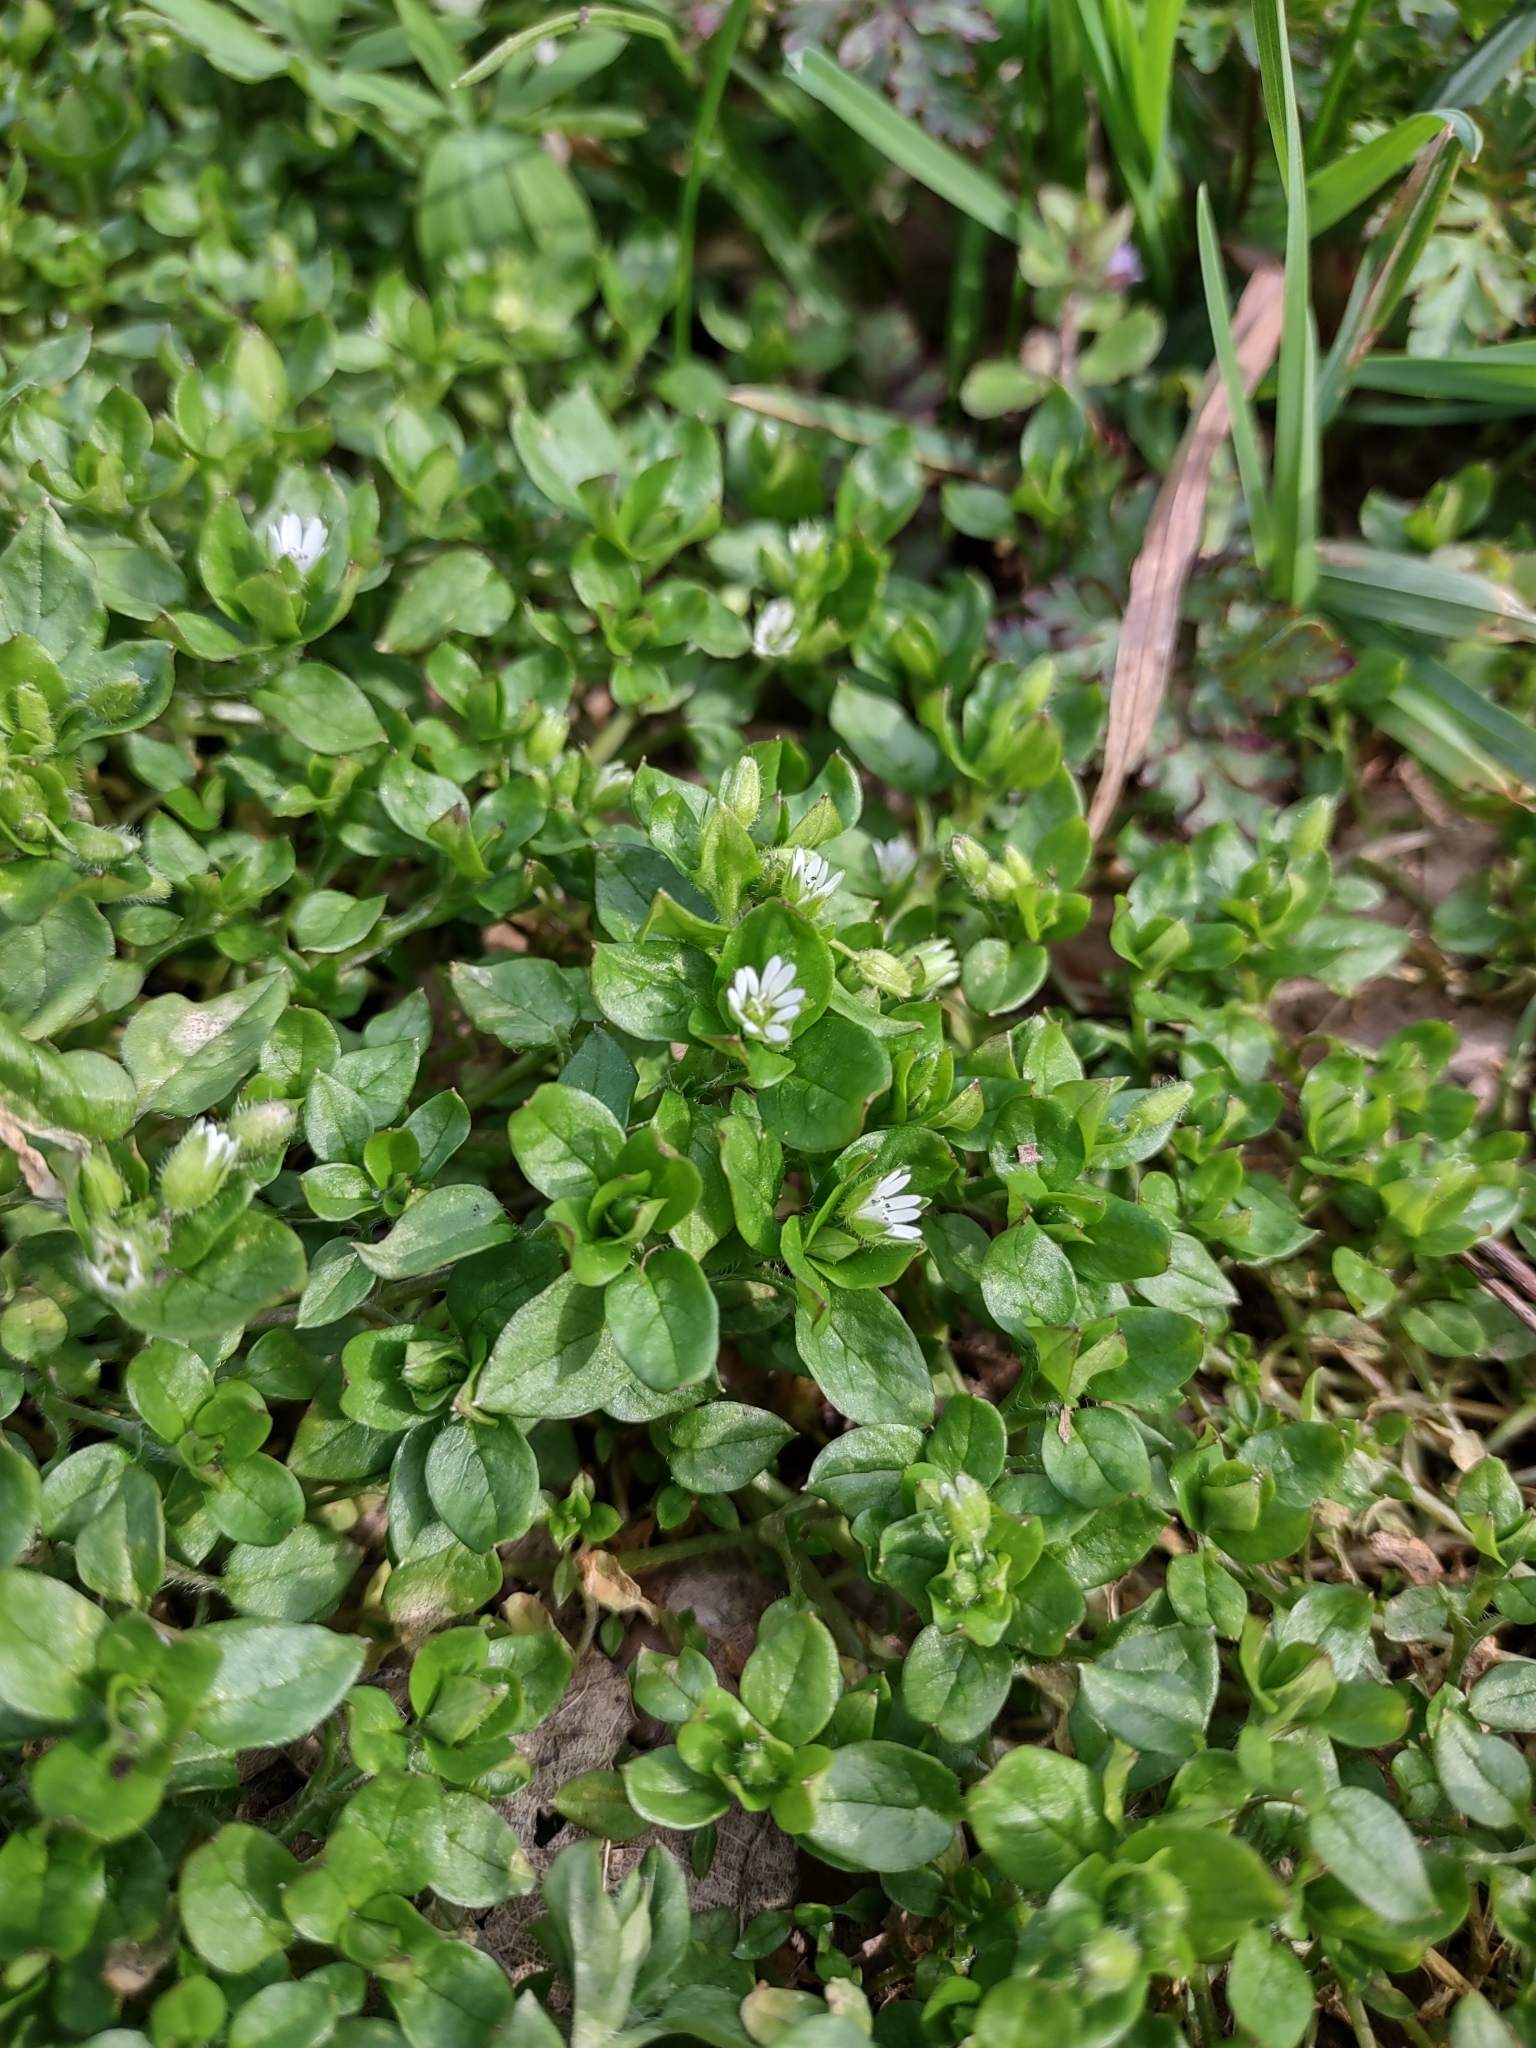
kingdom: Plantae
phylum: Tracheophyta
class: Magnoliopsida
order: Caryophyllales
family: Caryophyllaceae
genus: Stellaria
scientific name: Stellaria media
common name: Common chickweed
